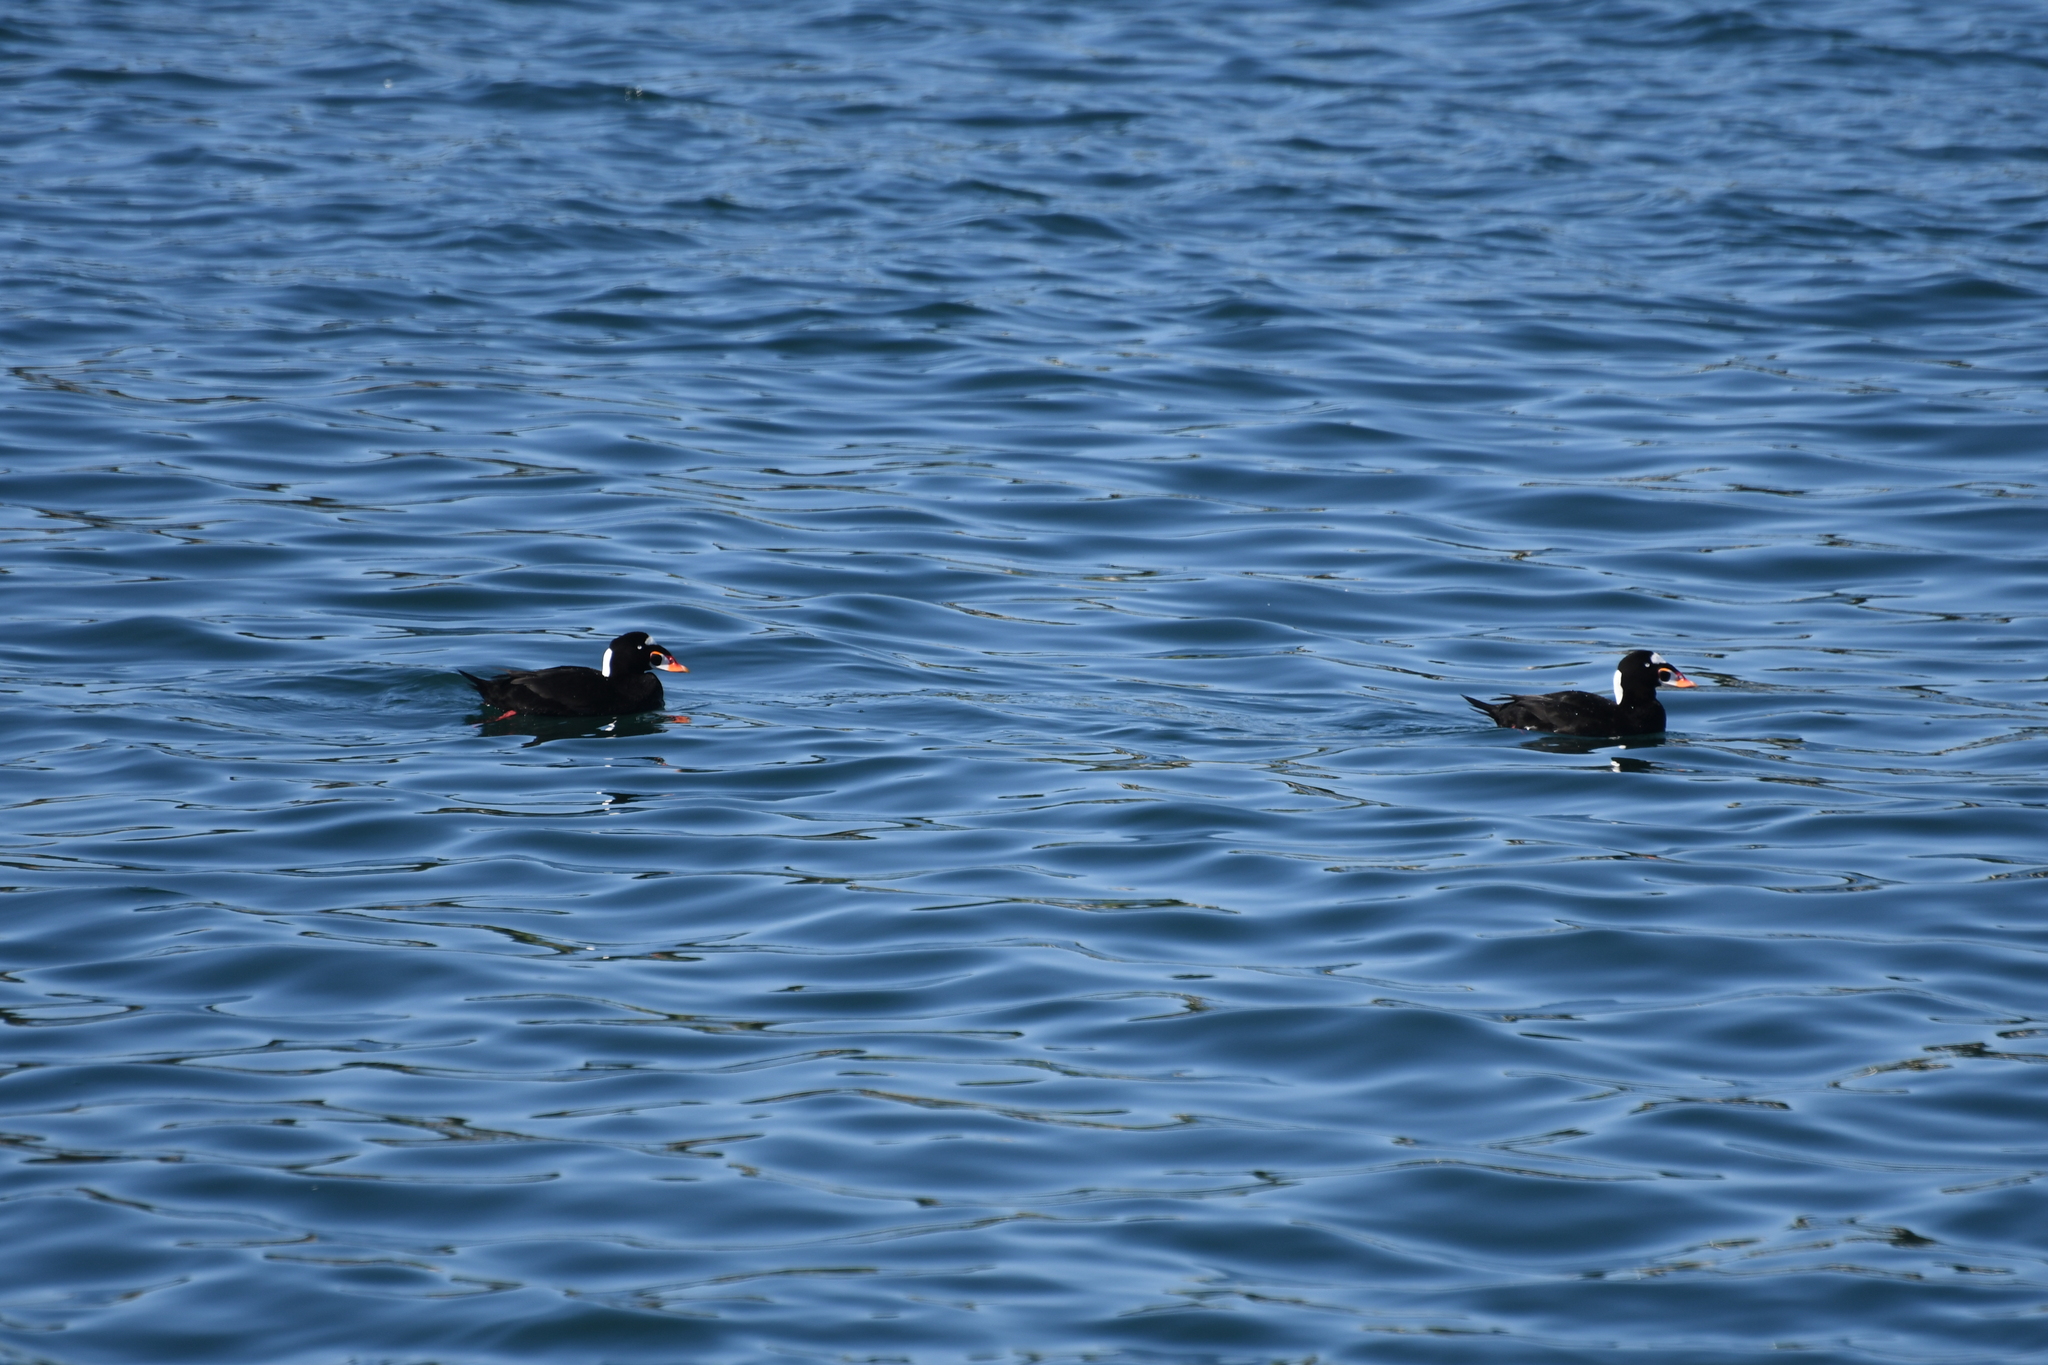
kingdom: Animalia
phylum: Chordata
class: Aves
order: Anseriformes
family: Anatidae
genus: Melanitta
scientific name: Melanitta perspicillata
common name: Surf scoter
